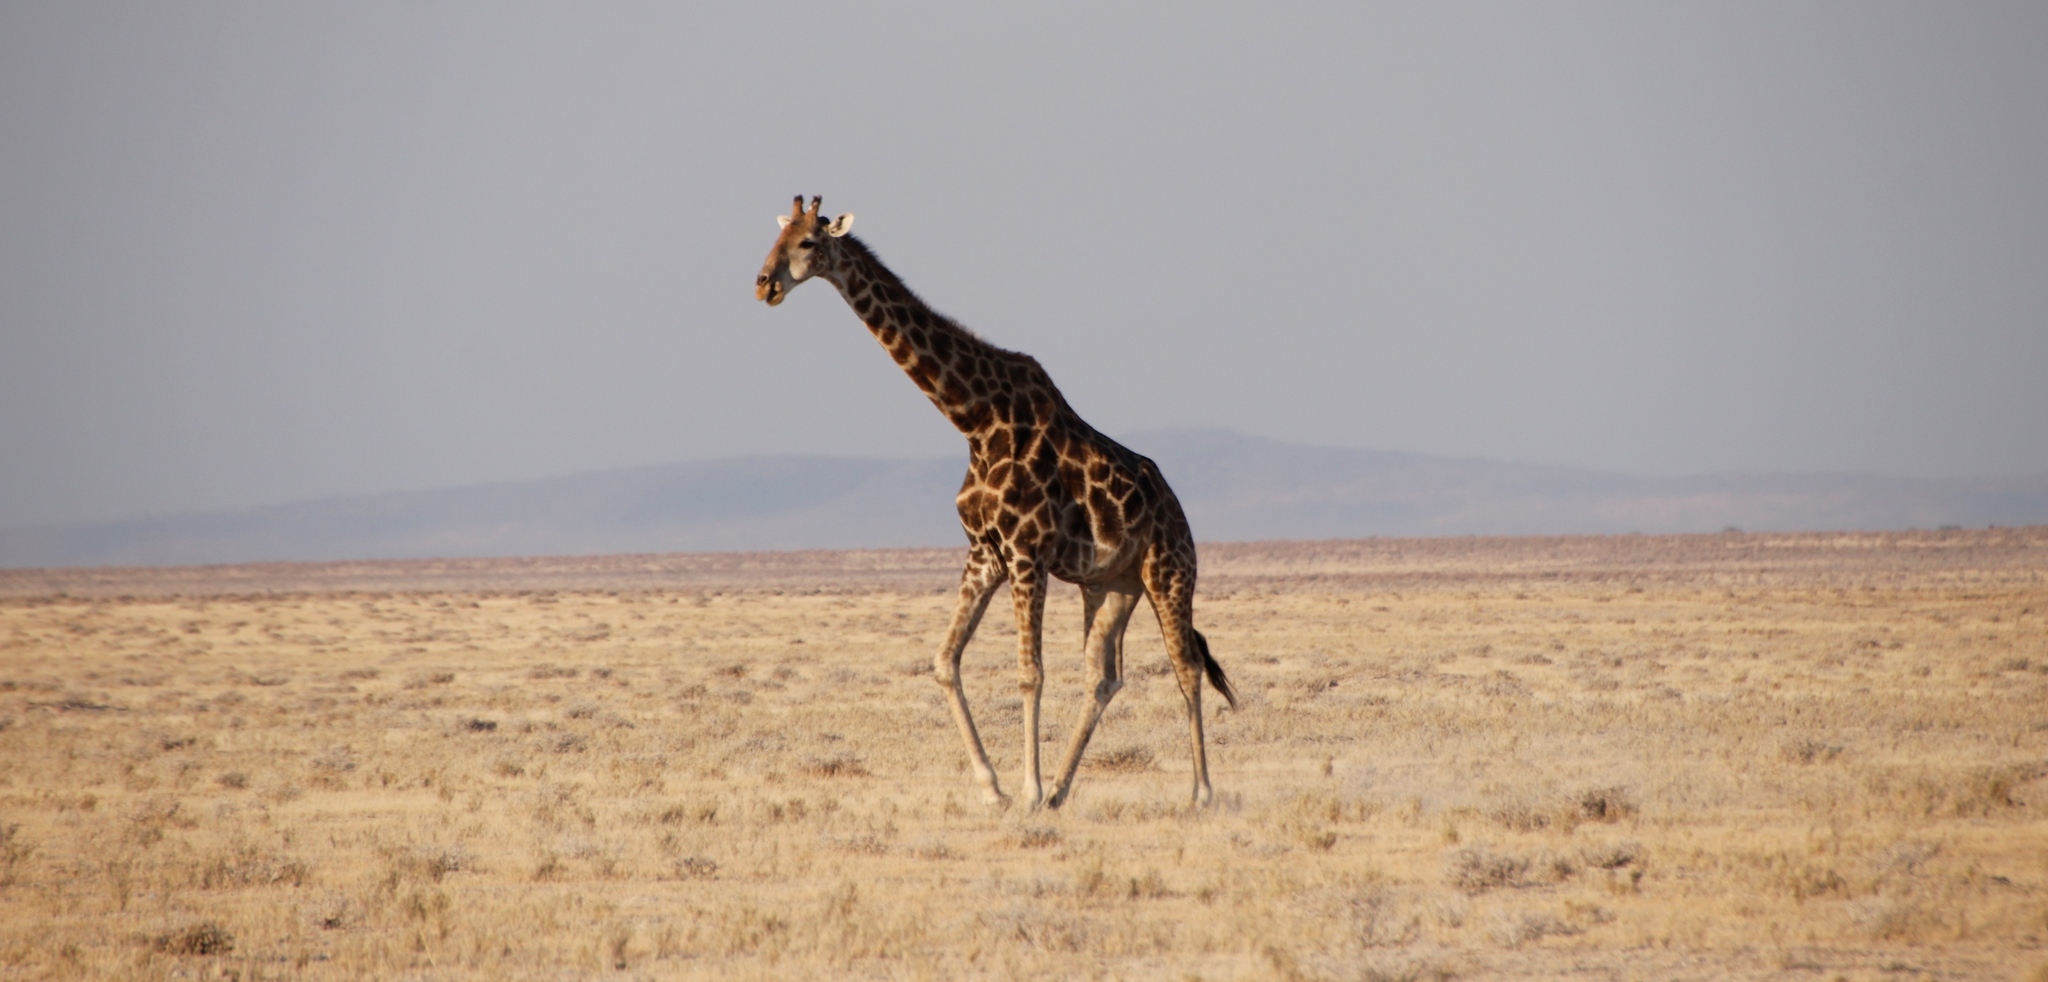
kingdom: Animalia
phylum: Chordata
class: Mammalia
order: Artiodactyla
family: Giraffidae
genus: Giraffa
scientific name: Giraffa giraffa
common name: Southern giraffe
